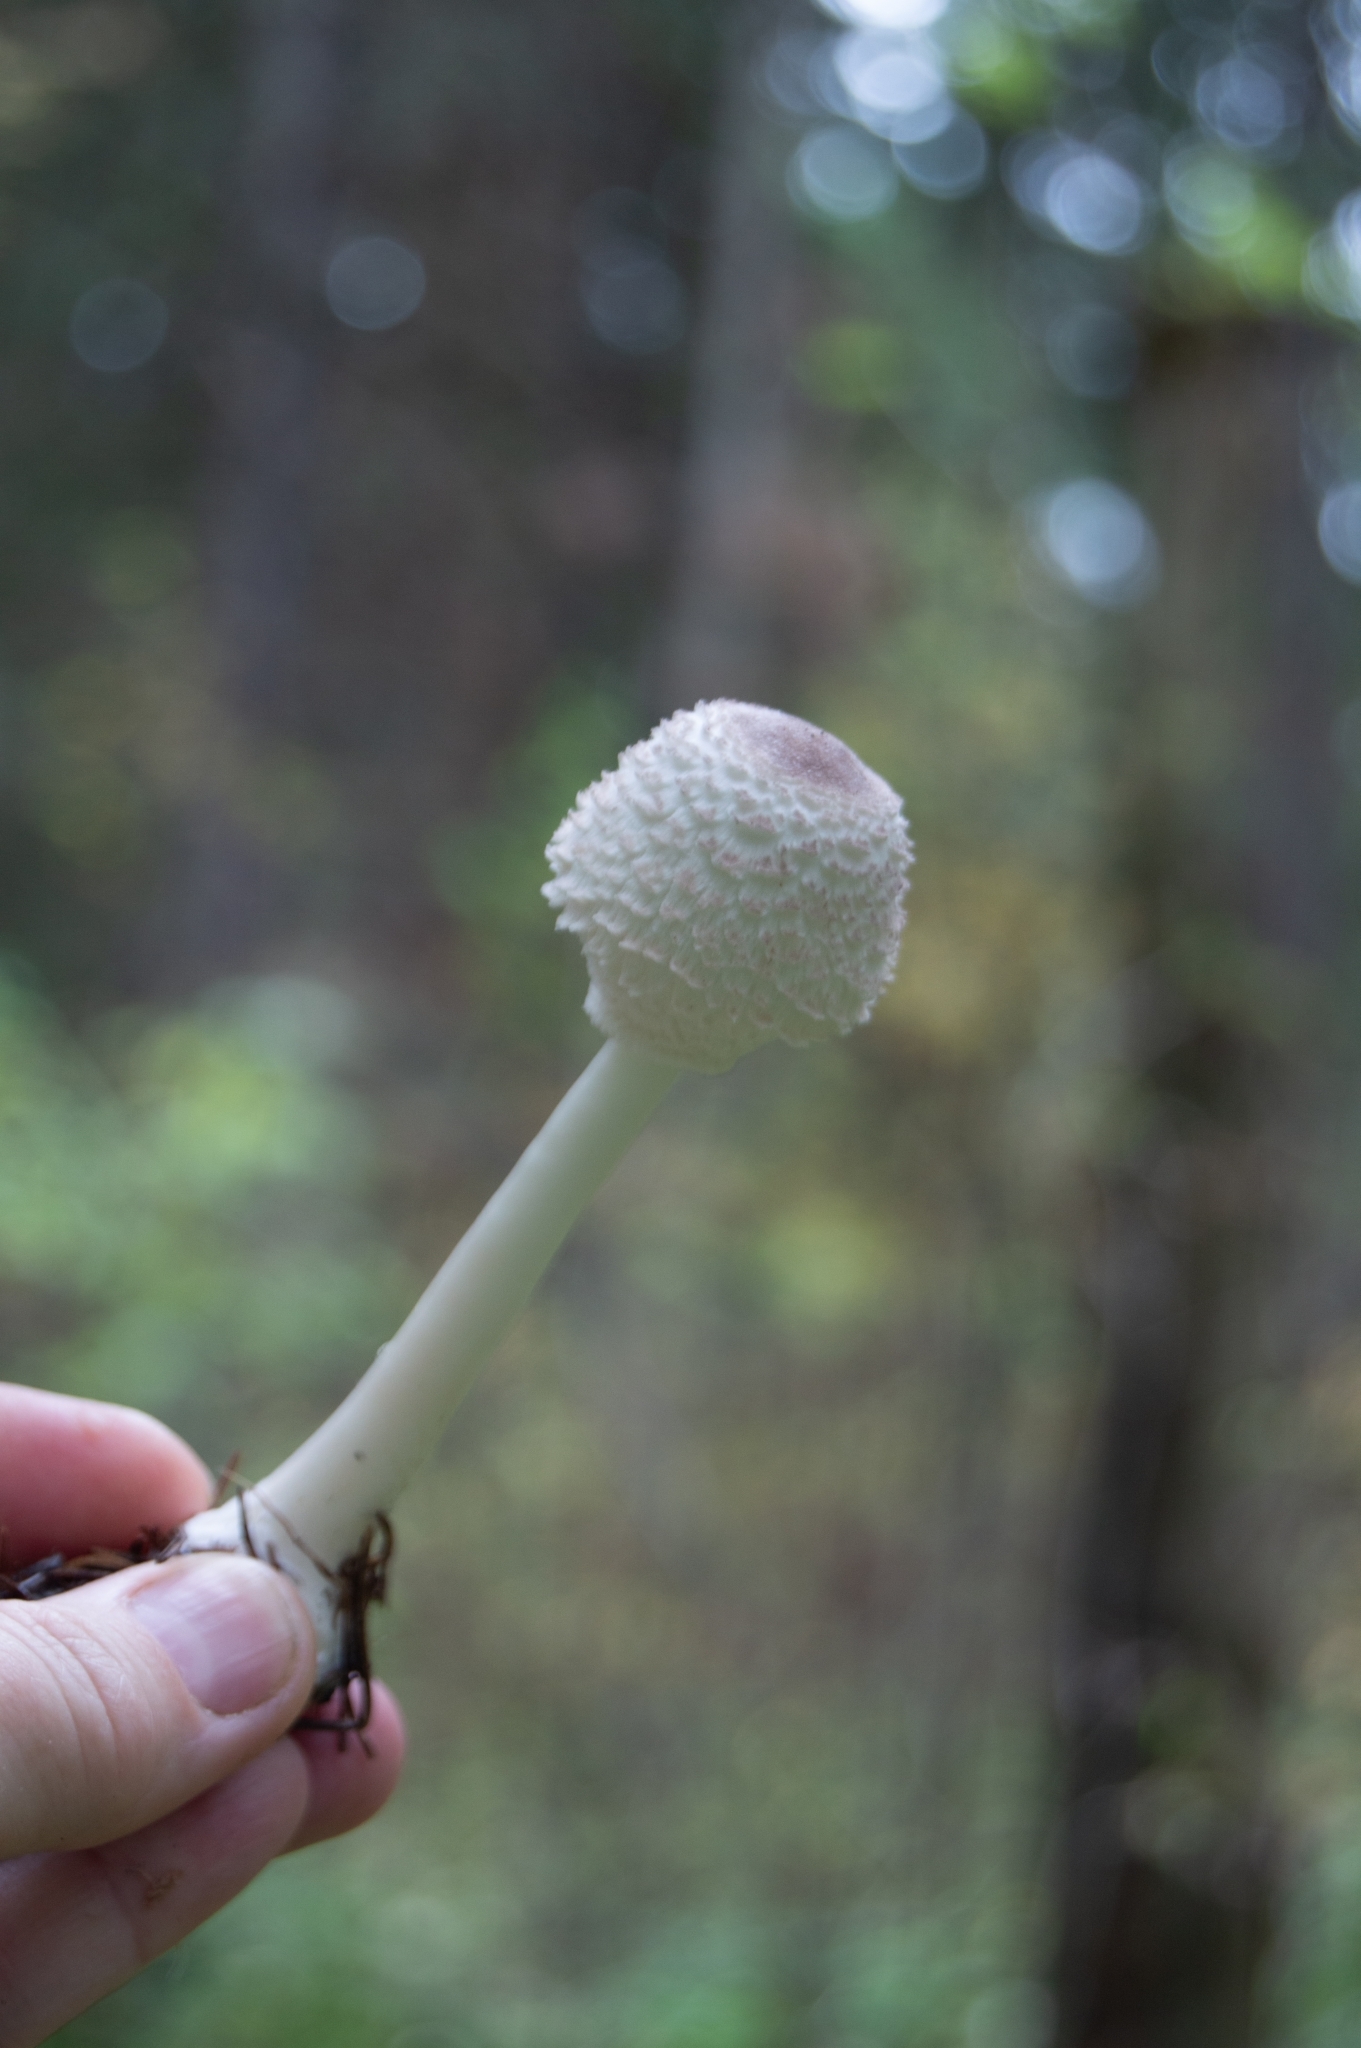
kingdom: Fungi
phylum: Basidiomycota
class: Agaricomycetes
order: Agaricales
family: Agaricaceae
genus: Leucoagaricus
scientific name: Leucoagaricus nympharum
